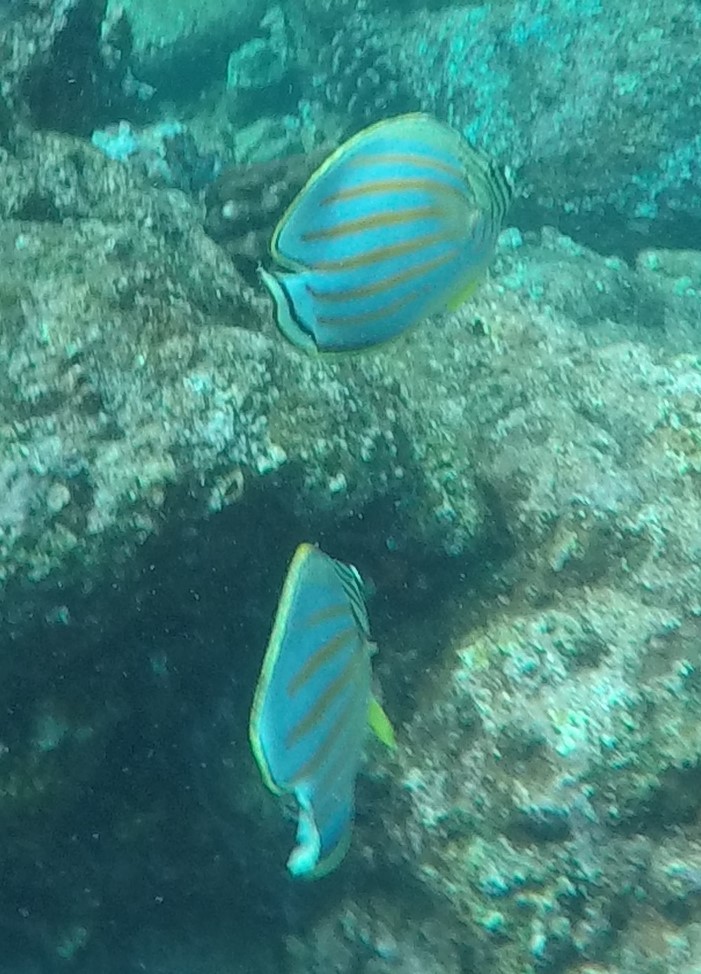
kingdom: Animalia
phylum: Chordata
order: Perciformes
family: Chaetodontidae
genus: Chaetodon
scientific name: Chaetodon ornatissimus
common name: Ornate butterflyfish
